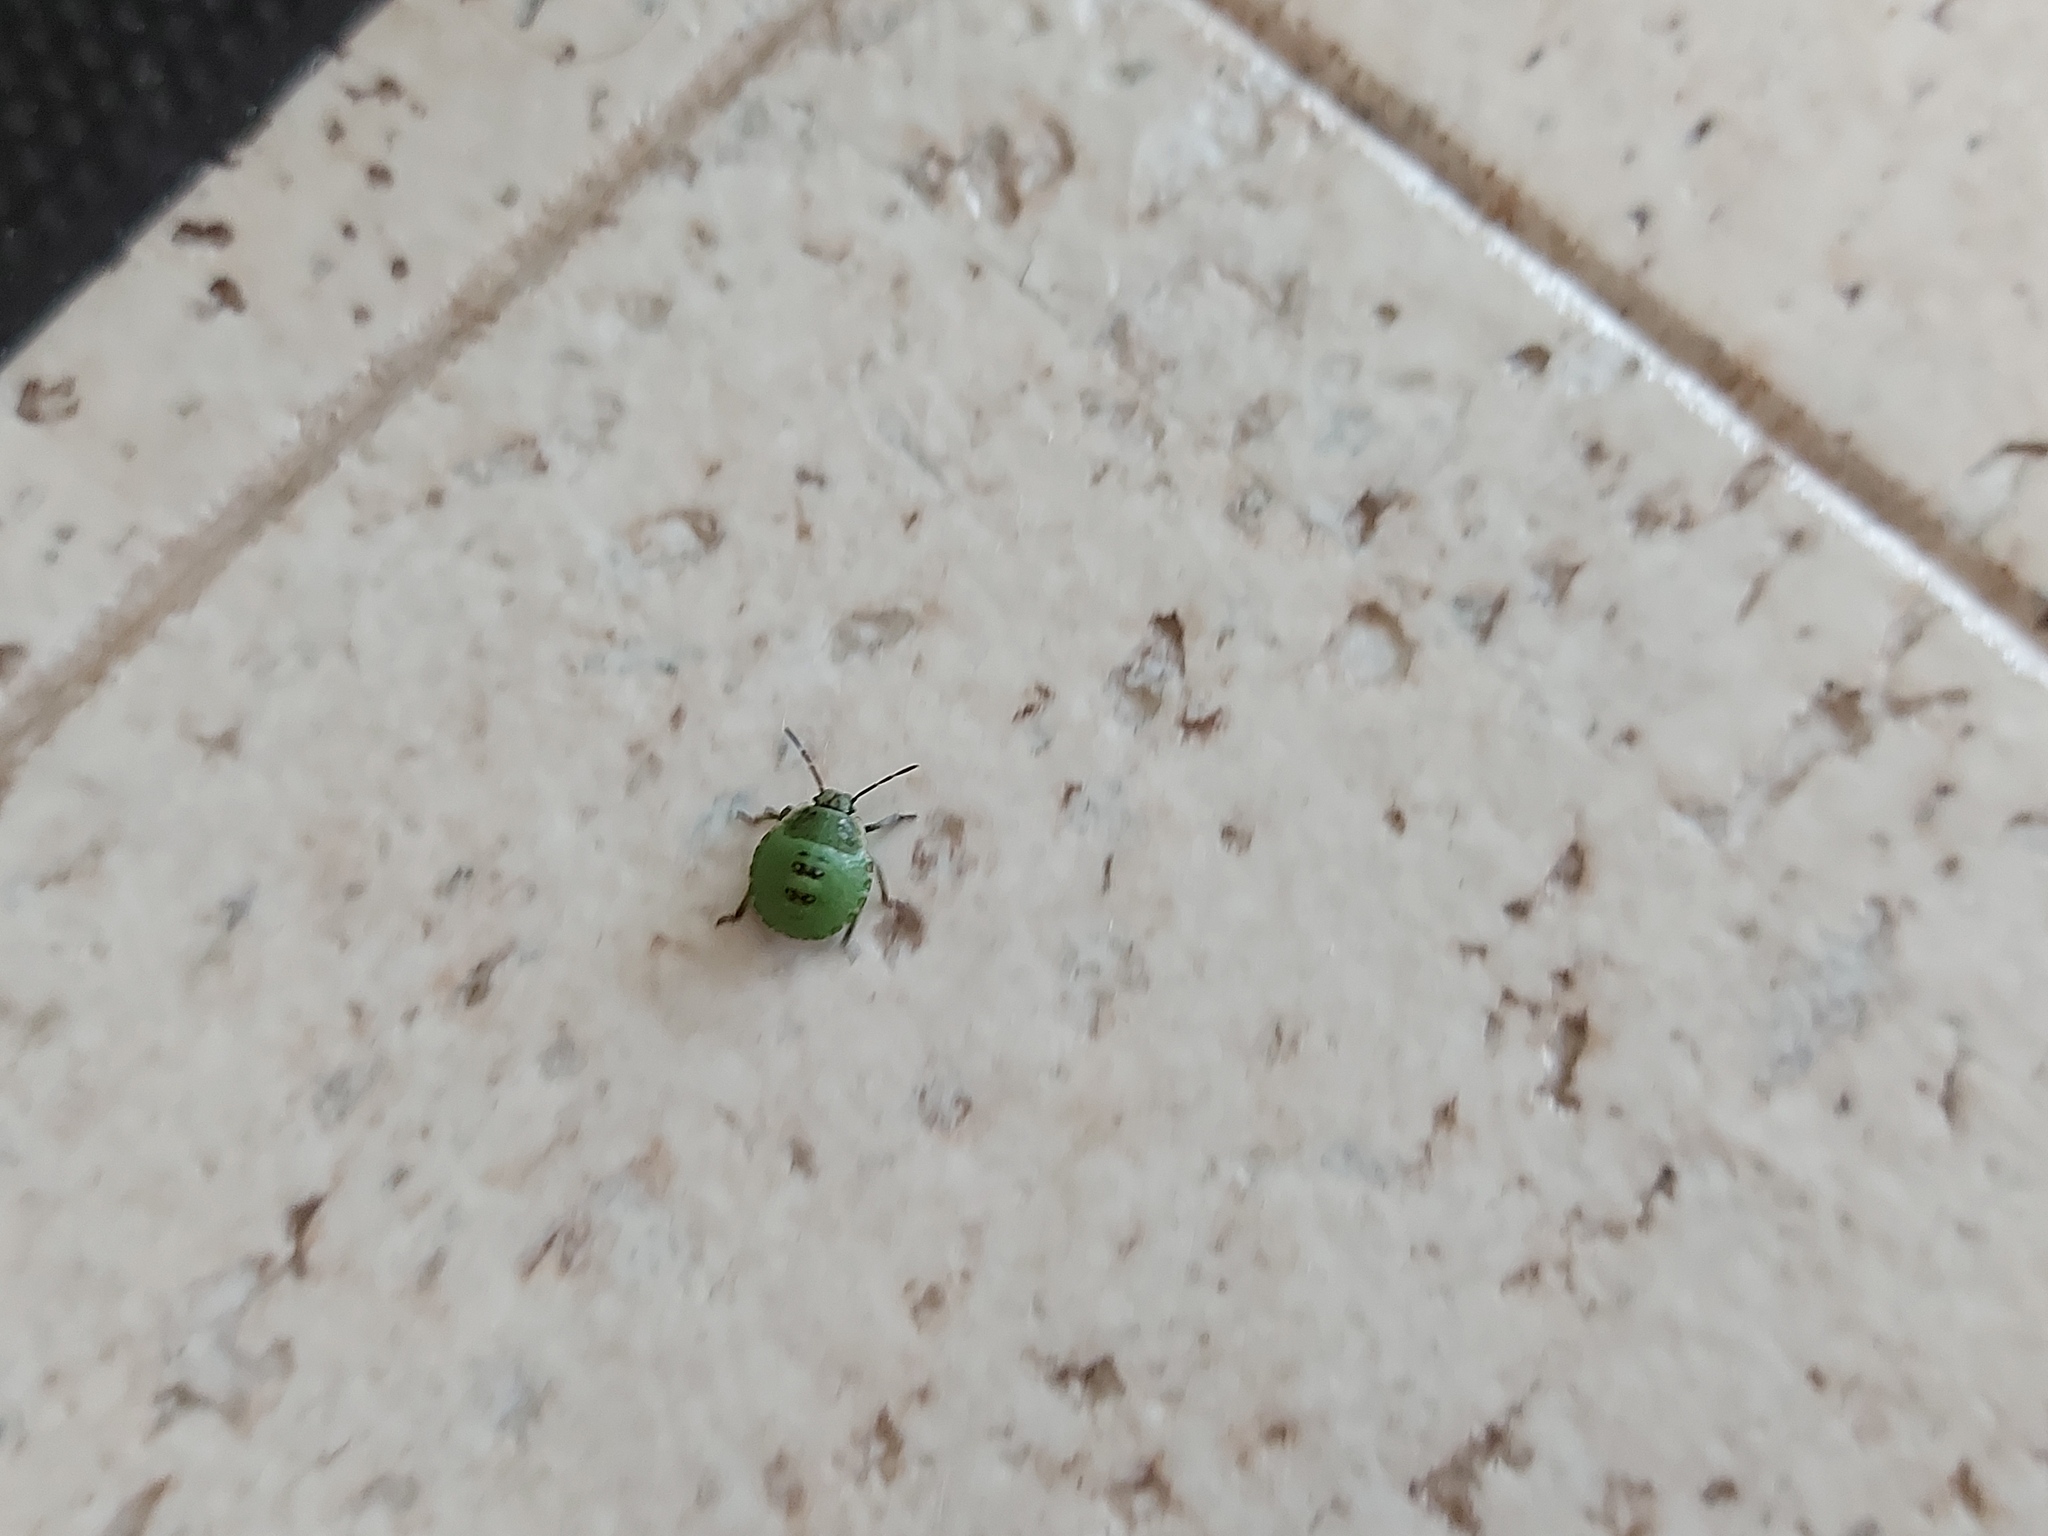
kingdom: Animalia
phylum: Arthropoda
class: Insecta
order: Hemiptera
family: Pentatomidae
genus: Palomena
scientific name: Palomena prasina
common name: Green shieldbug
